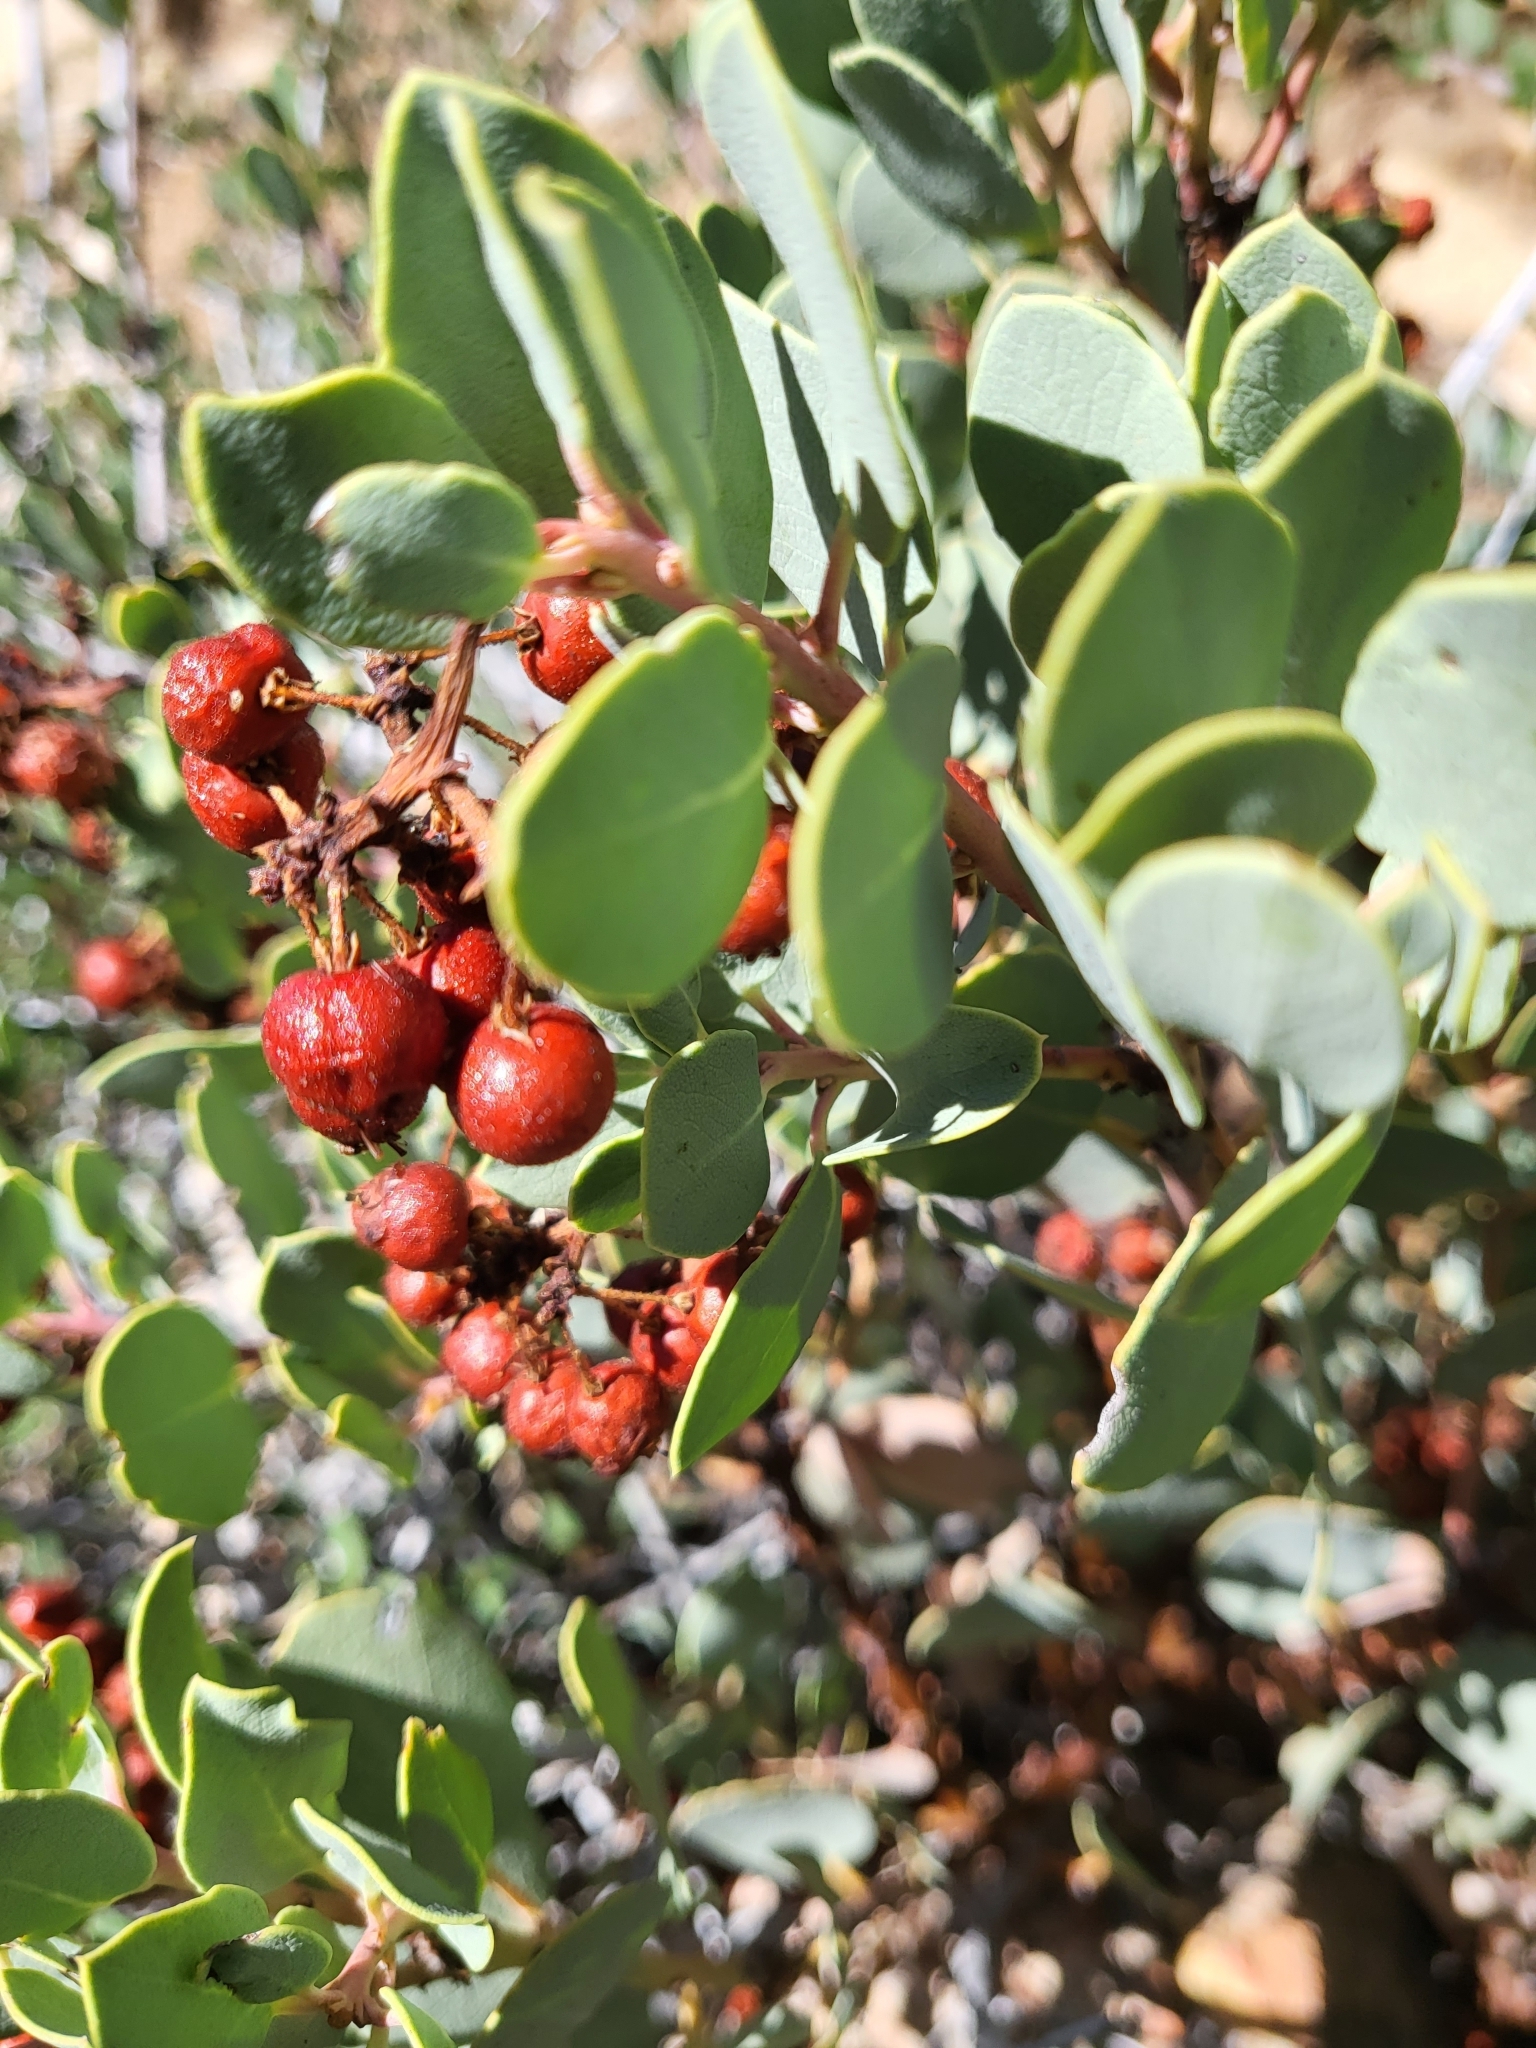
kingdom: Plantae
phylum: Tracheophyta
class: Magnoliopsida
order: Ericales
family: Ericaceae
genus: Arctostaphylos
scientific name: Arctostaphylos viscida
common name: White-leaf manzanita
